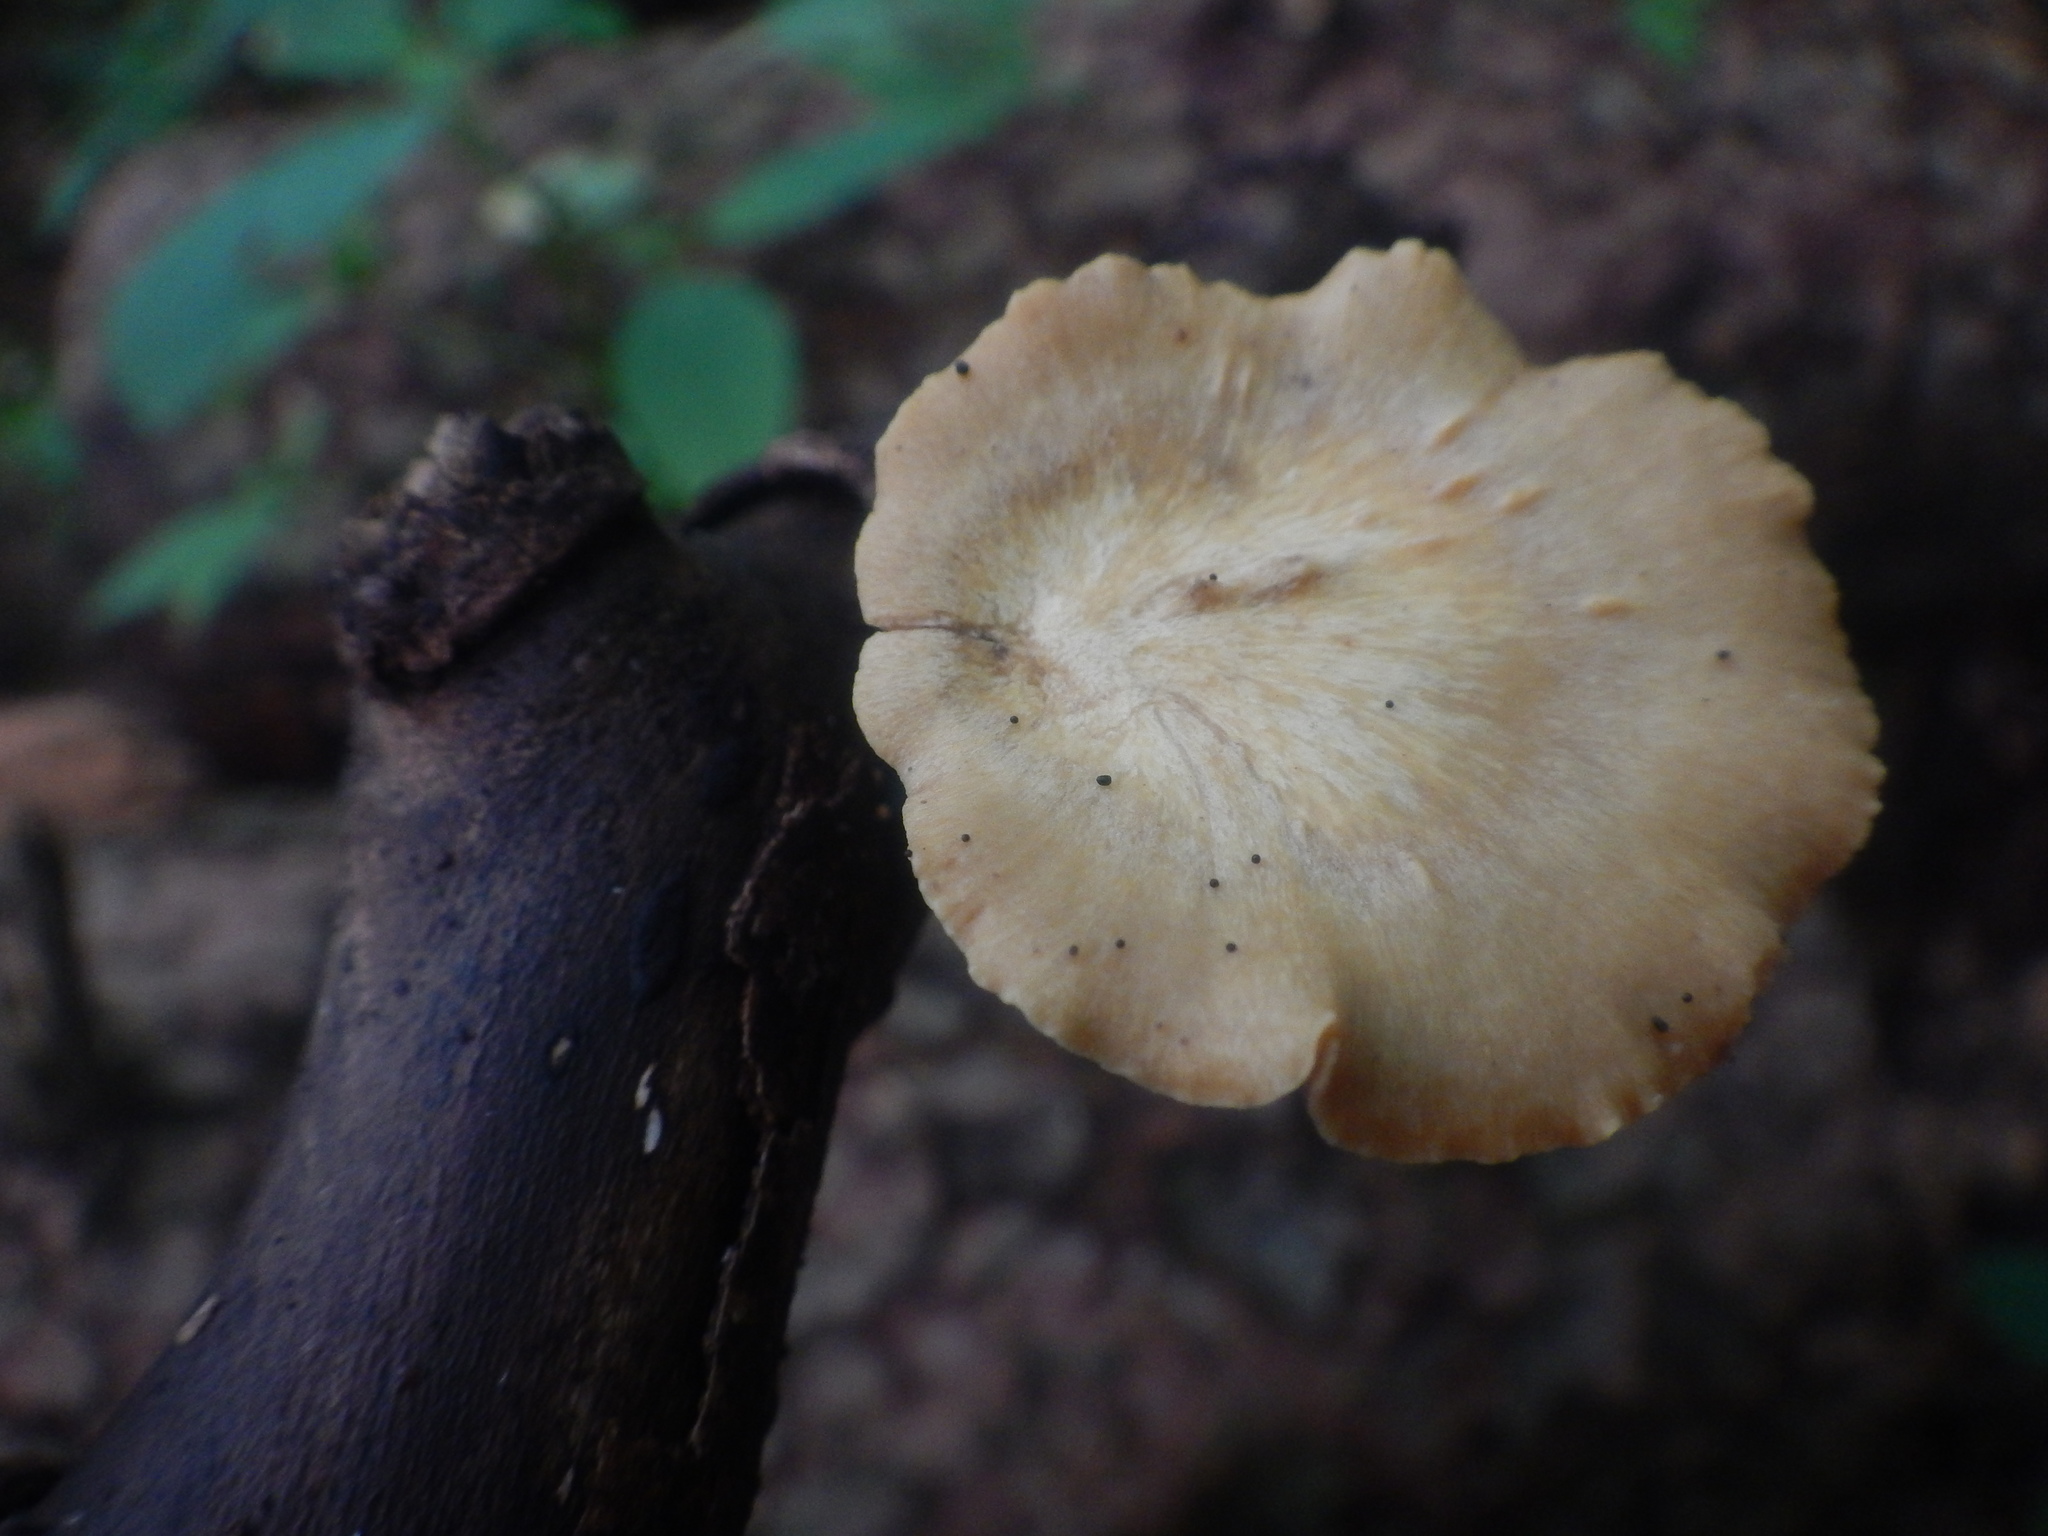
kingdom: Fungi
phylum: Basidiomycota
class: Agaricomycetes
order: Polyporales
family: Polyporaceae
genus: Cerioporus
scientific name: Cerioporus leptocephalus
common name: Blackfoot polypore
